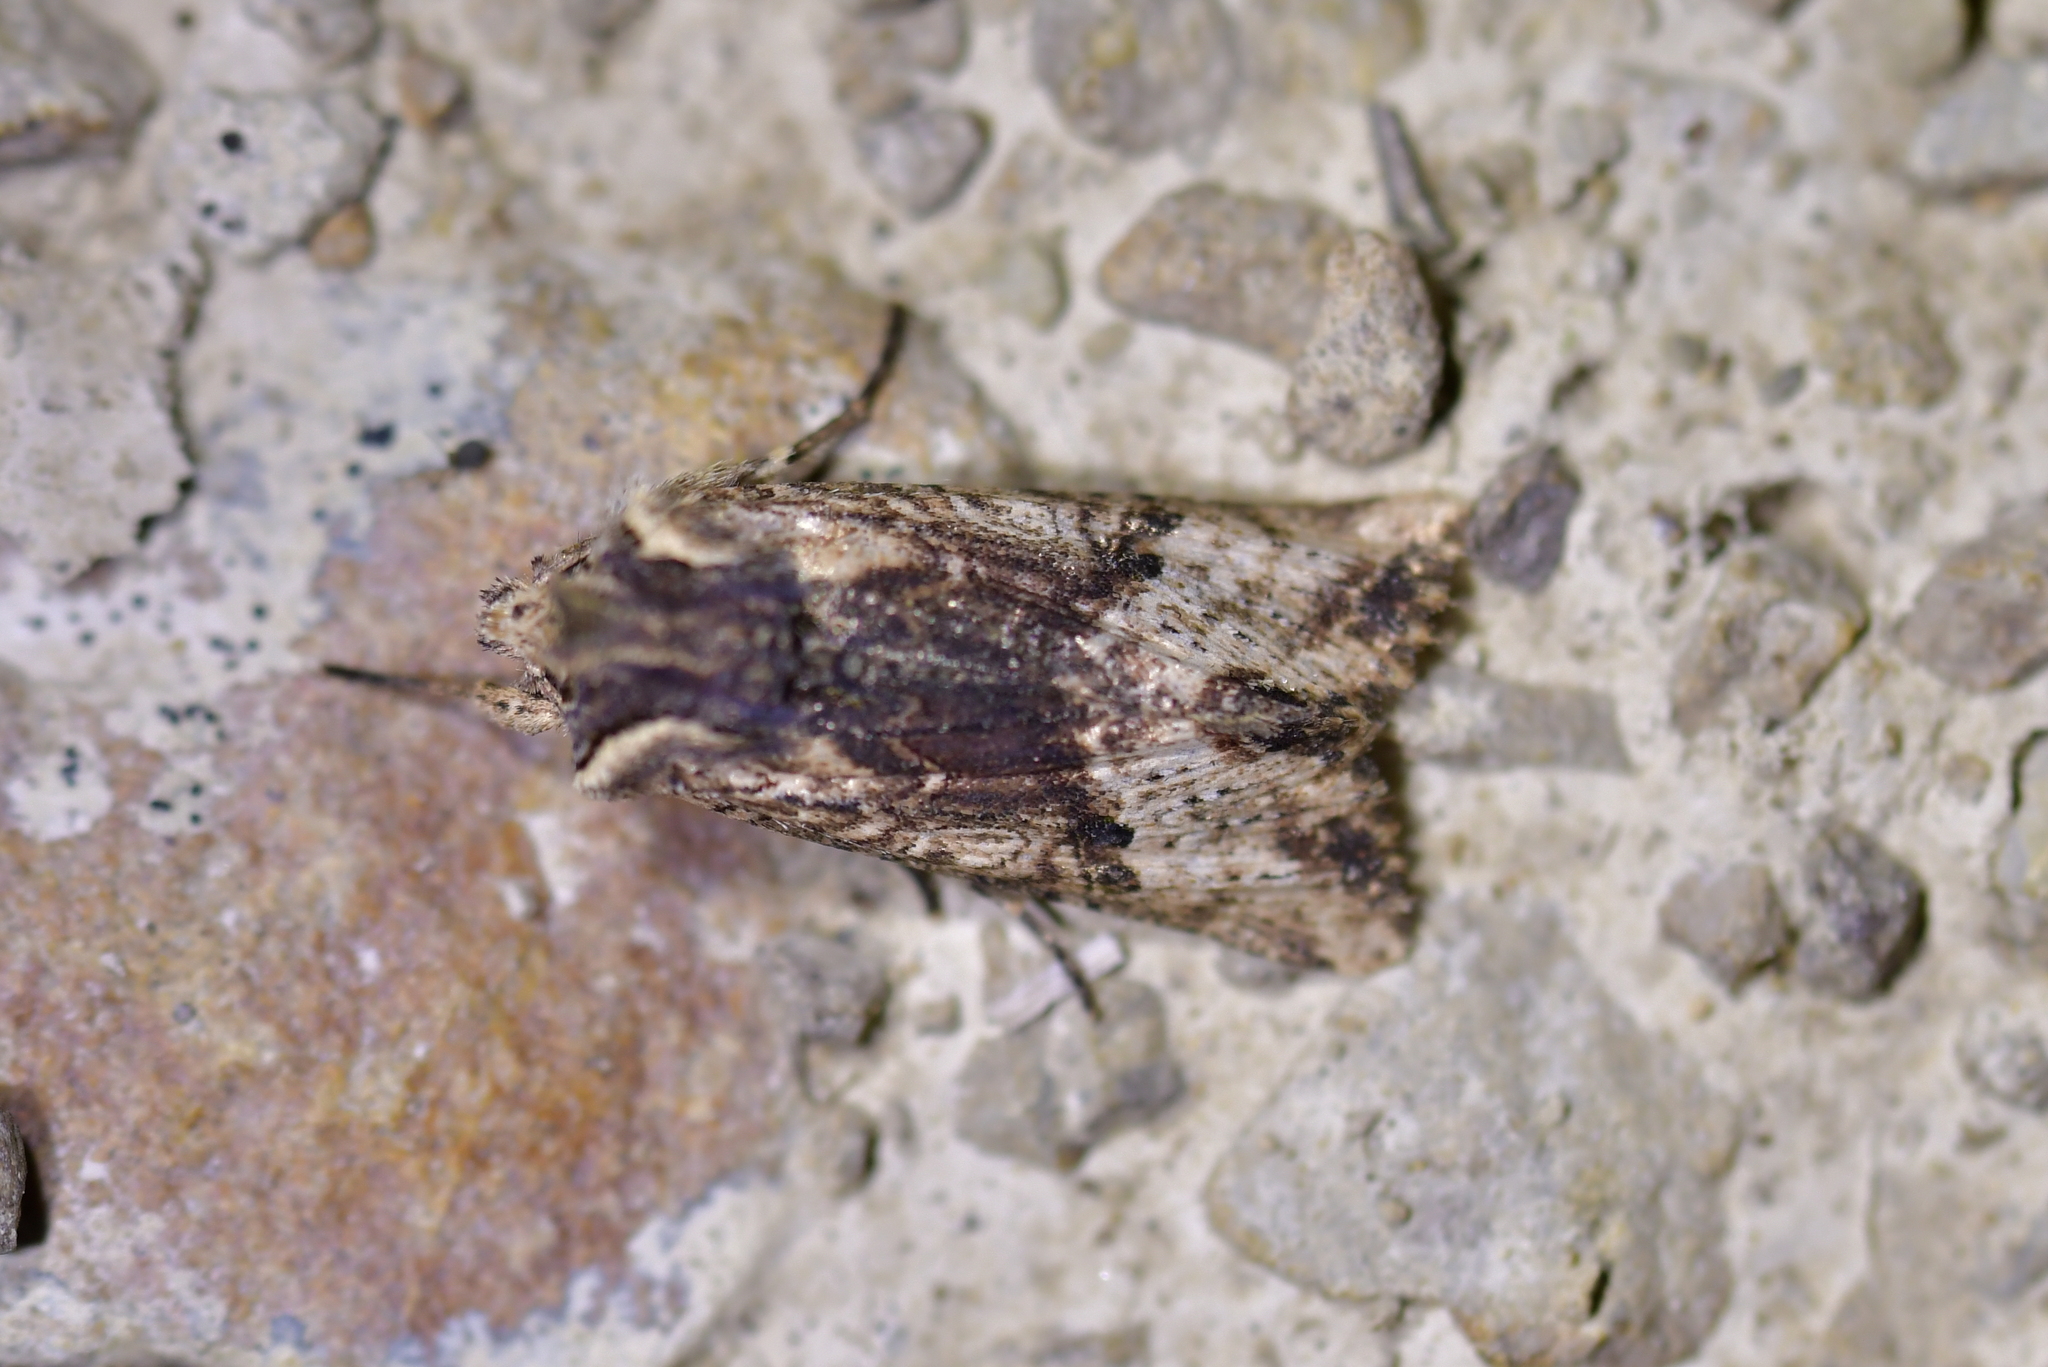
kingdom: Animalia
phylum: Arthropoda
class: Insecta
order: Lepidoptera
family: Noctuidae
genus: Meterana
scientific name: Meterana coeleno
